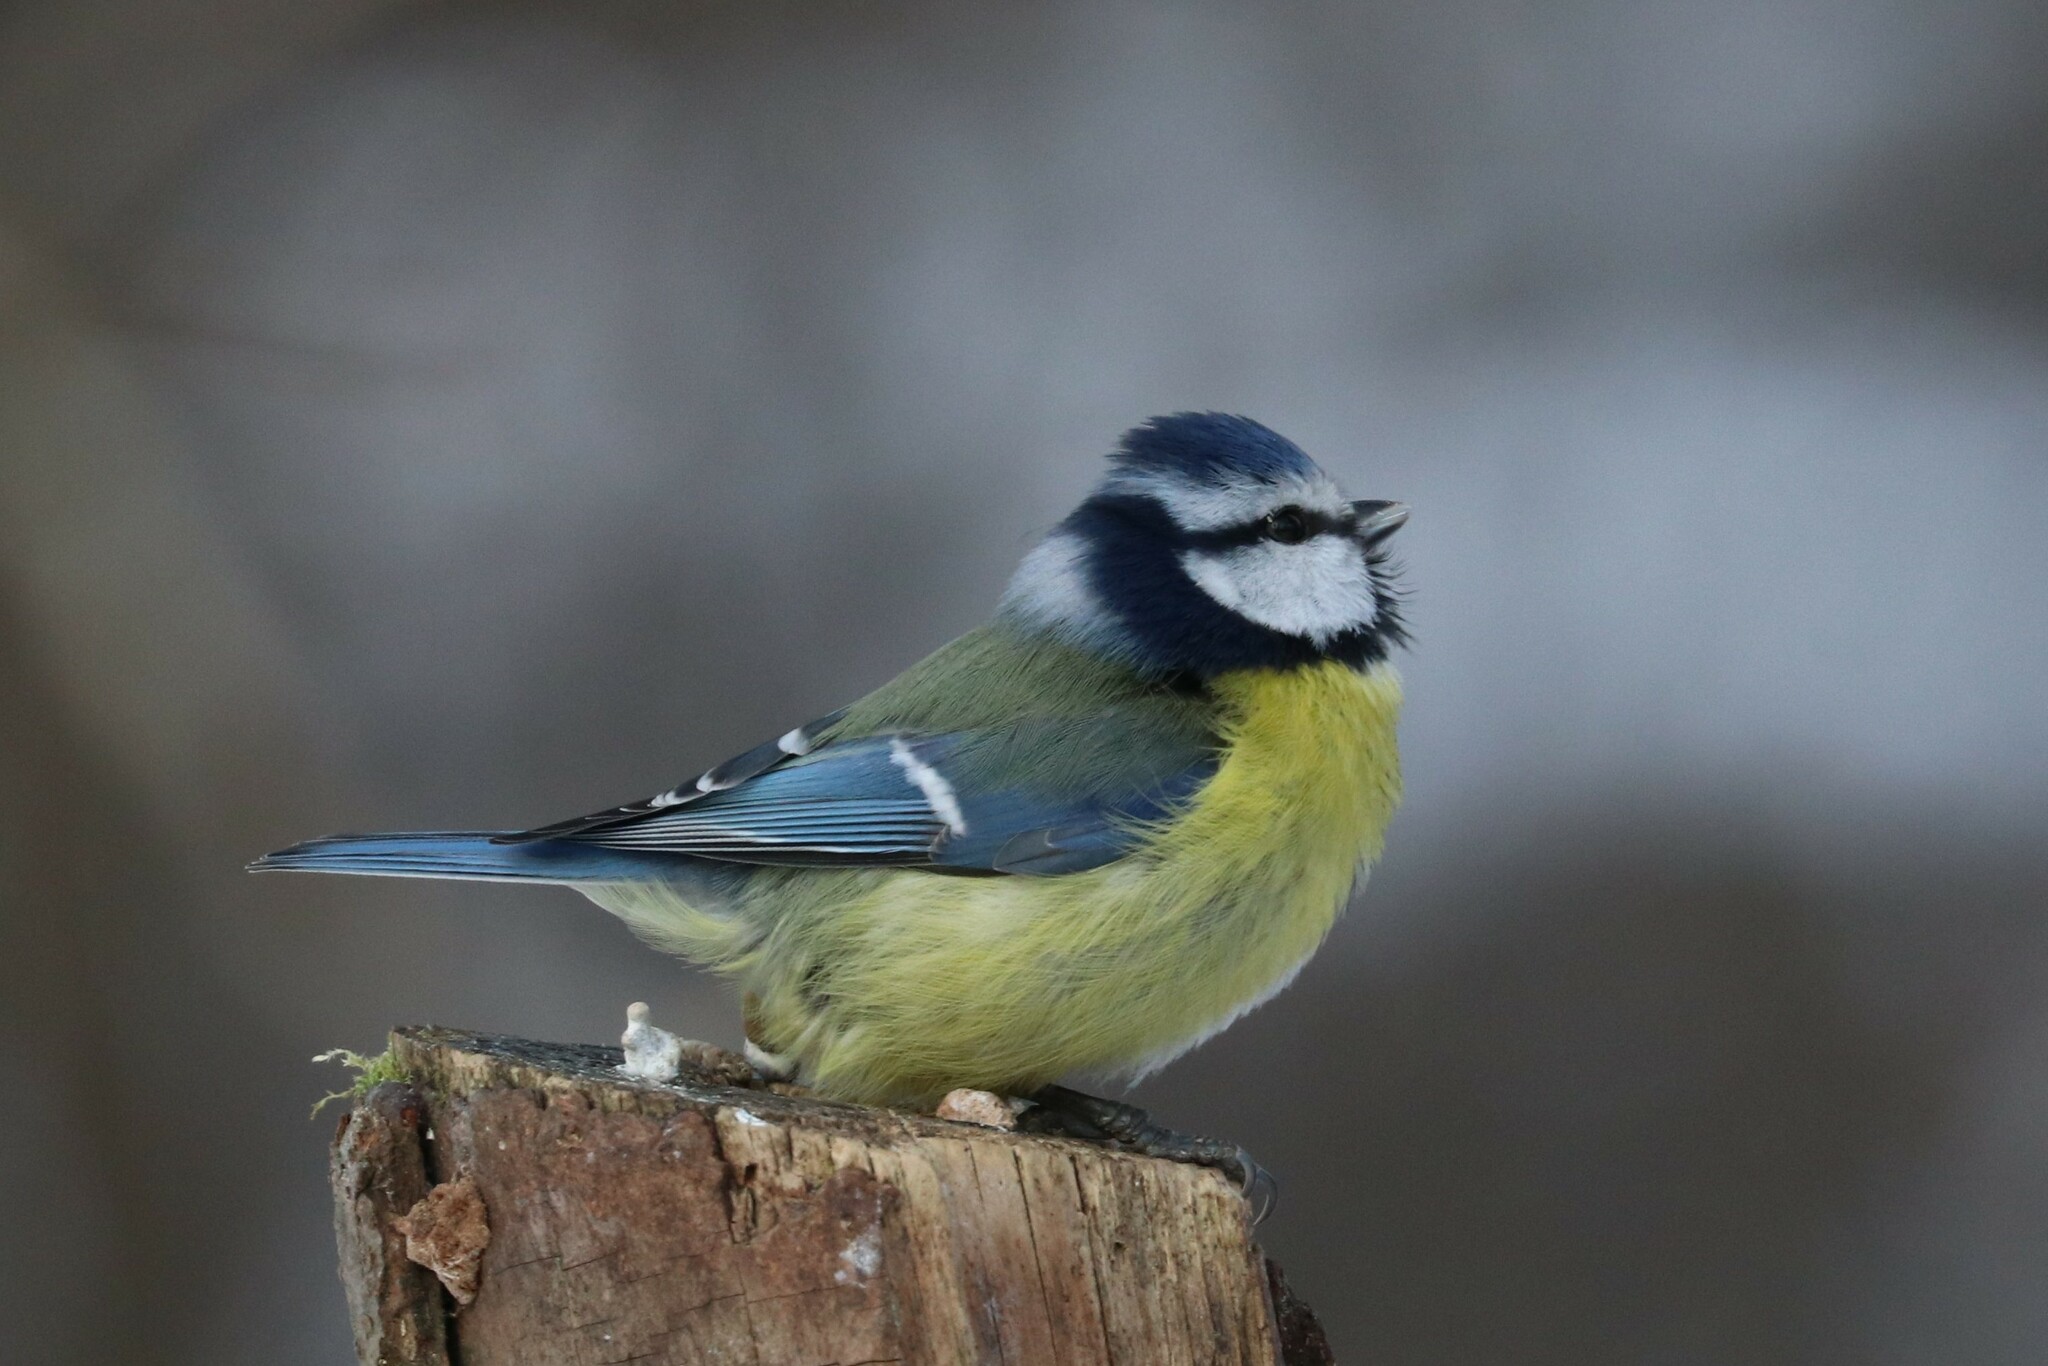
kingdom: Animalia
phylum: Chordata
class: Aves
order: Passeriformes
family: Paridae
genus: Cyanistes
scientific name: Cyanistes caeruleus
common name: Eurasian blue tit
